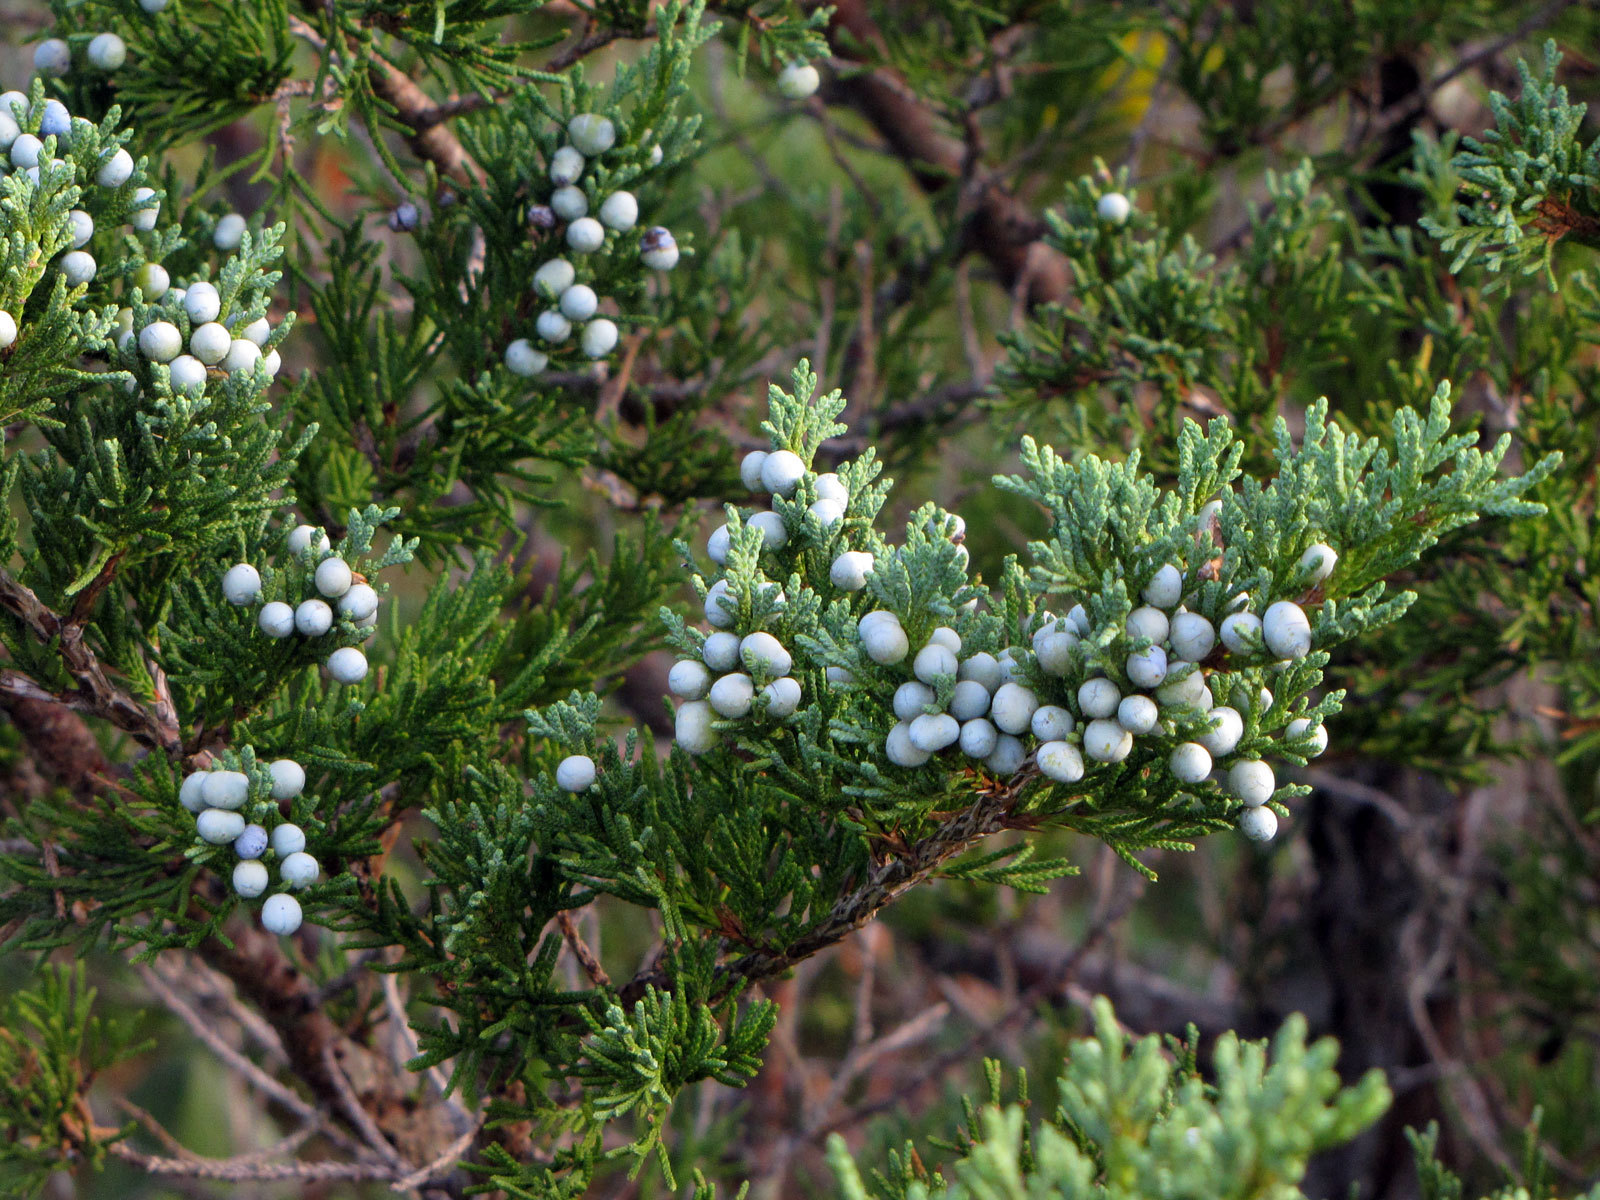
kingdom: Plantae
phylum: Tracheophyta
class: Pinopsida
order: Pinales
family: Cupressaceae
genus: Juniperus
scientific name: Juniperus virginiana
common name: Red juniper
